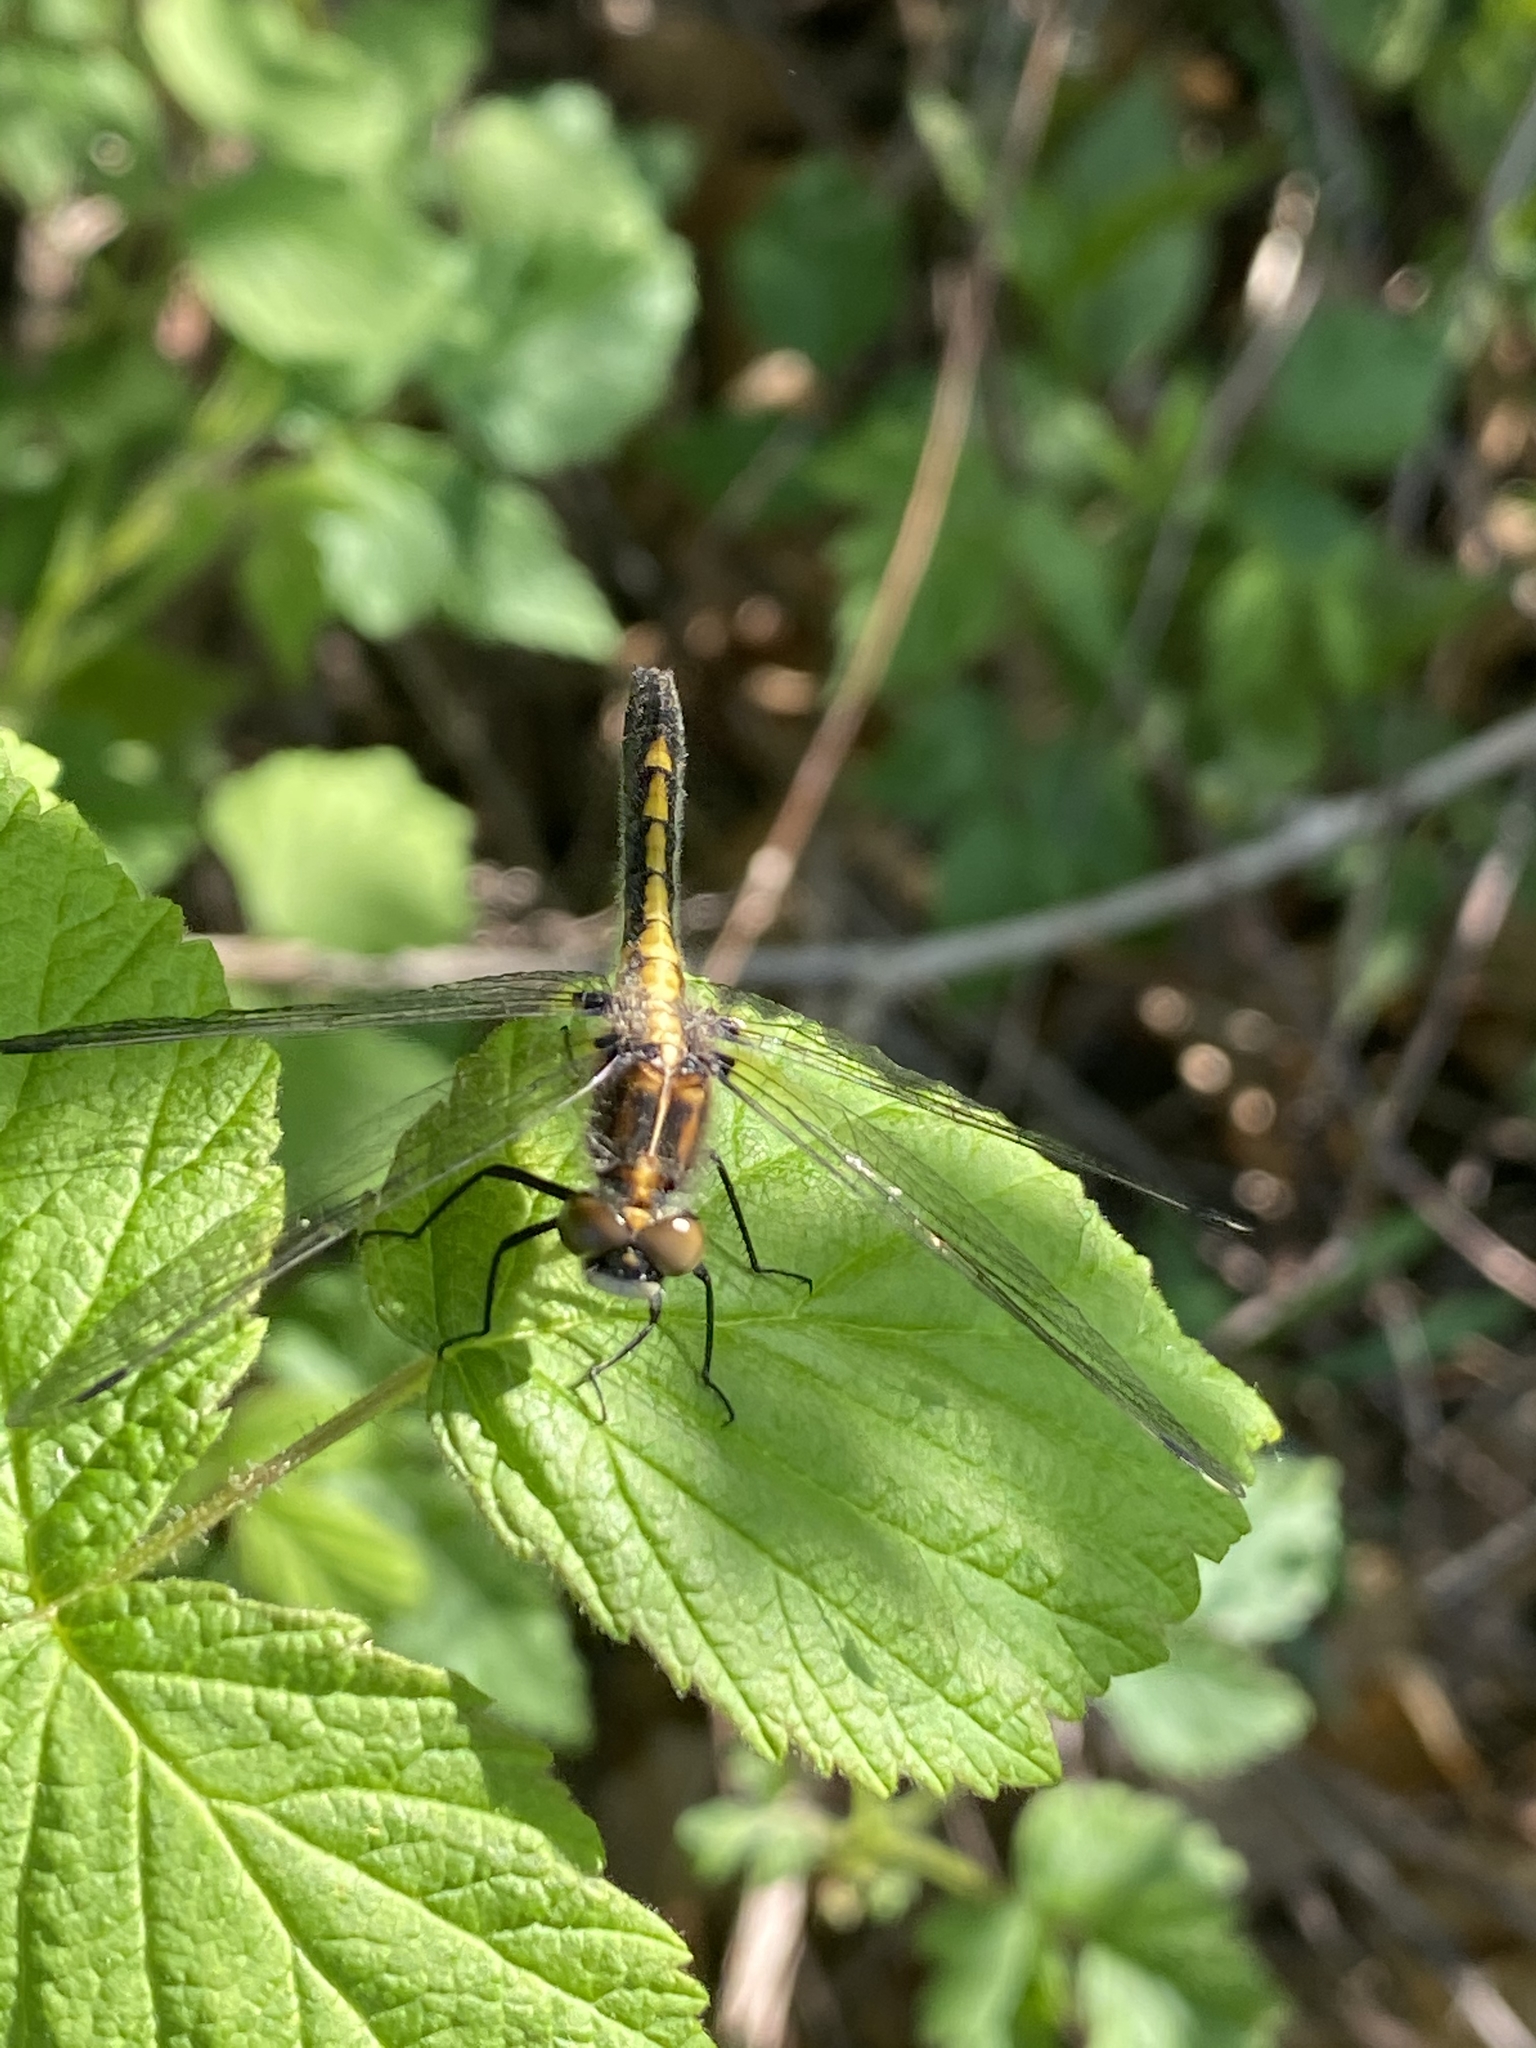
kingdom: Animalia
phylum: Arthropoda
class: Insecta
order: Odonata
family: Libellulidae
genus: Leucorrhinia
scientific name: Leucorrhinia intacta
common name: Dot-tailed whiteface
